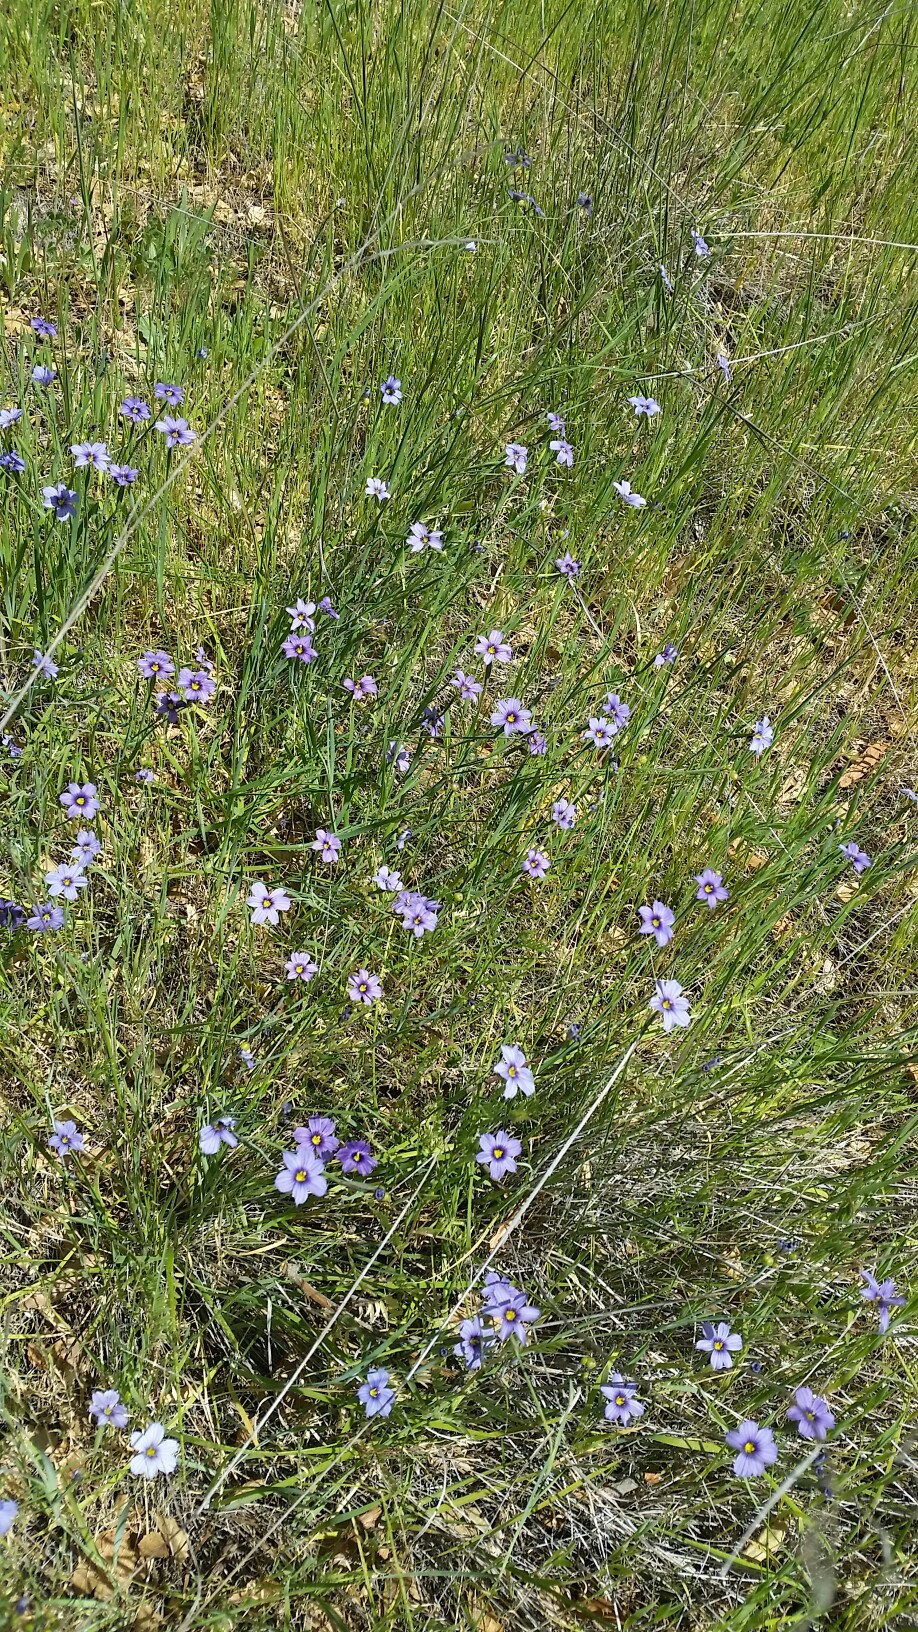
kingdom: Plantae
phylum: Tracheophyta
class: Liliopsida
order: Asparagales
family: Iridaceae
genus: Sisyrinchium
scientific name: Sisyrinchium bellum
